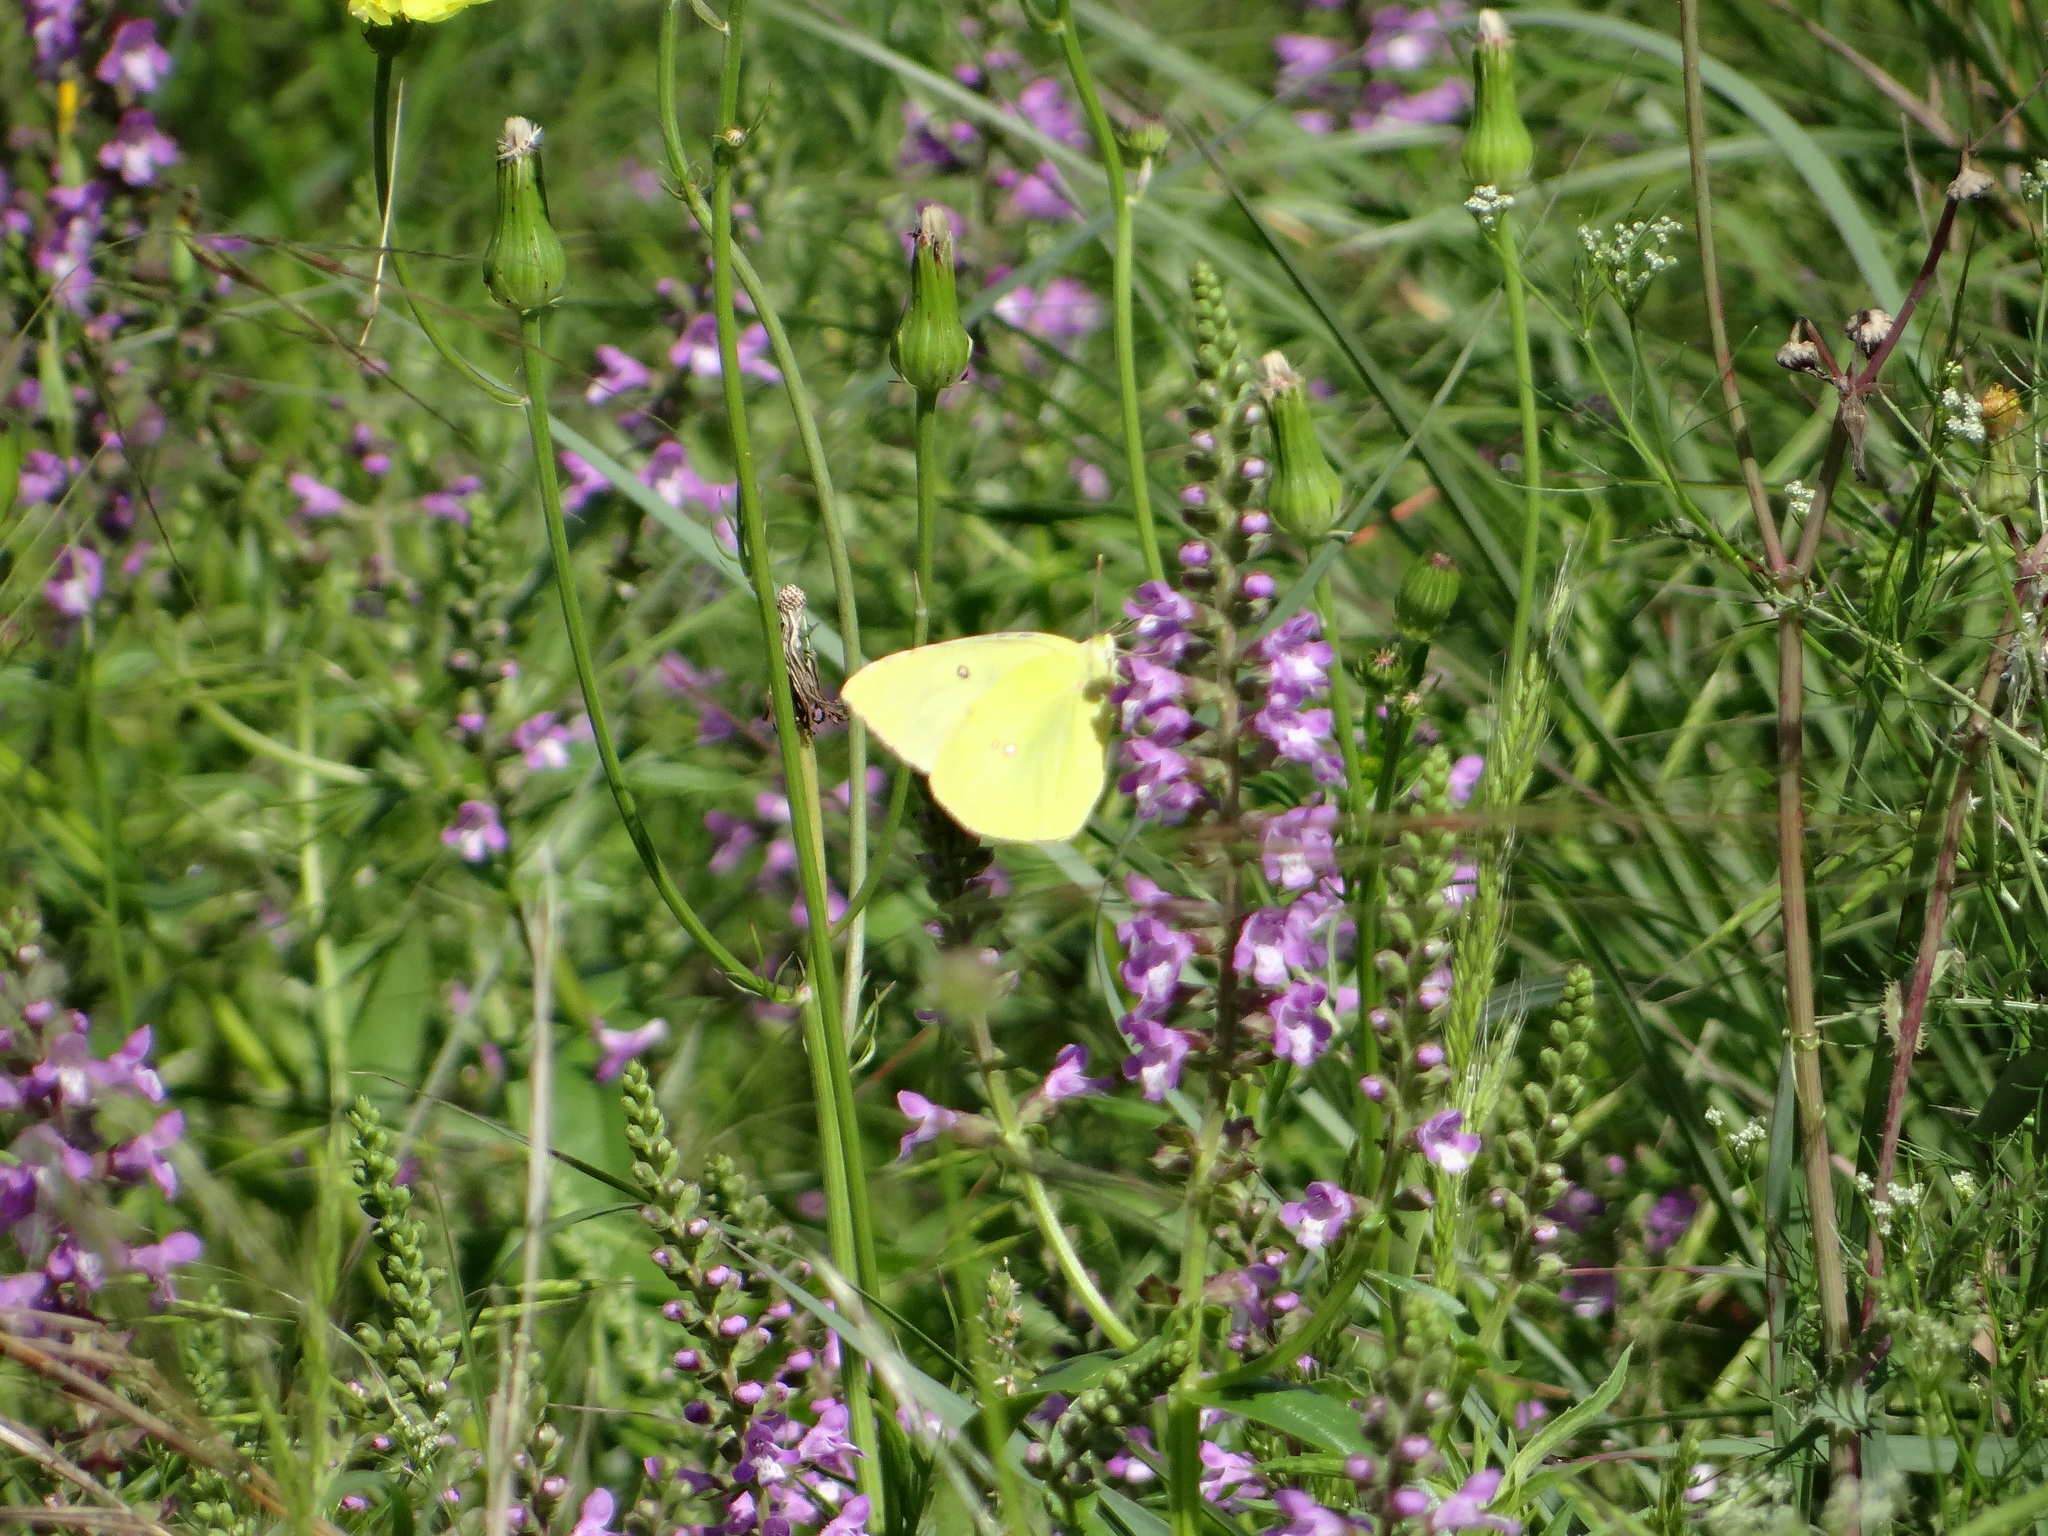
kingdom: Animalia
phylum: Arthropoda
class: Insecta
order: Lepidoptera
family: Pieridae
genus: Zerene
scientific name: Zerene cesonia
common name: Southern dogface
